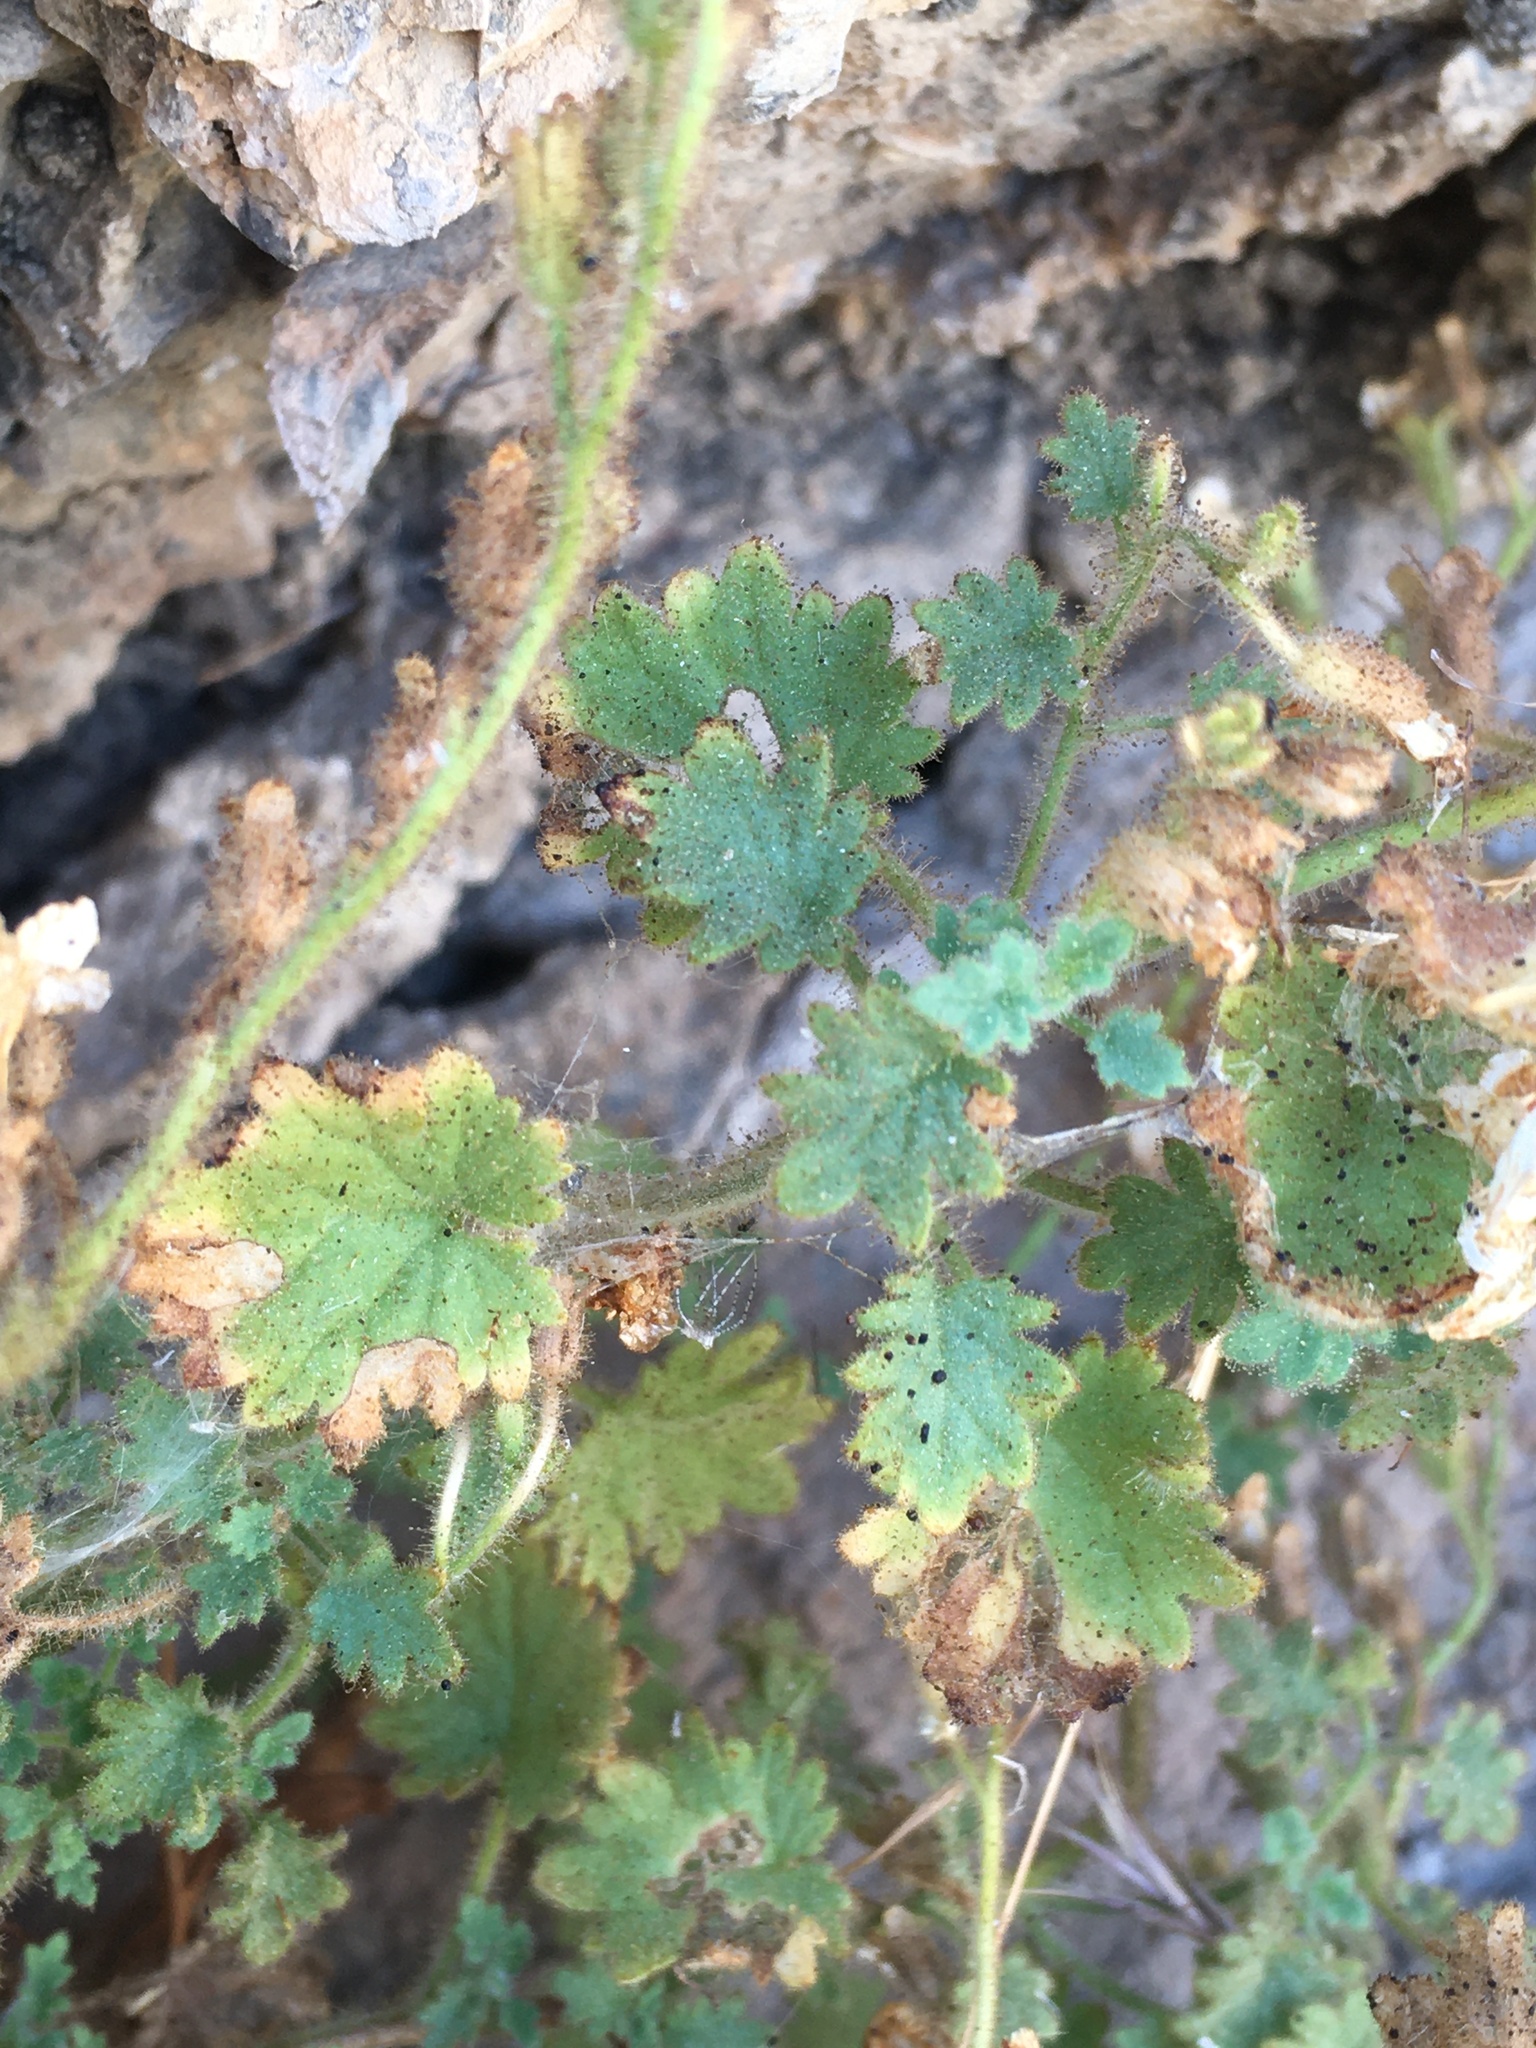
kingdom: Plantae
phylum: Tracheophyta
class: Magnoliopsida
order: Boraginales
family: Hydrophyllaceae
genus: Phacelia
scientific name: Phacelia perityloides
